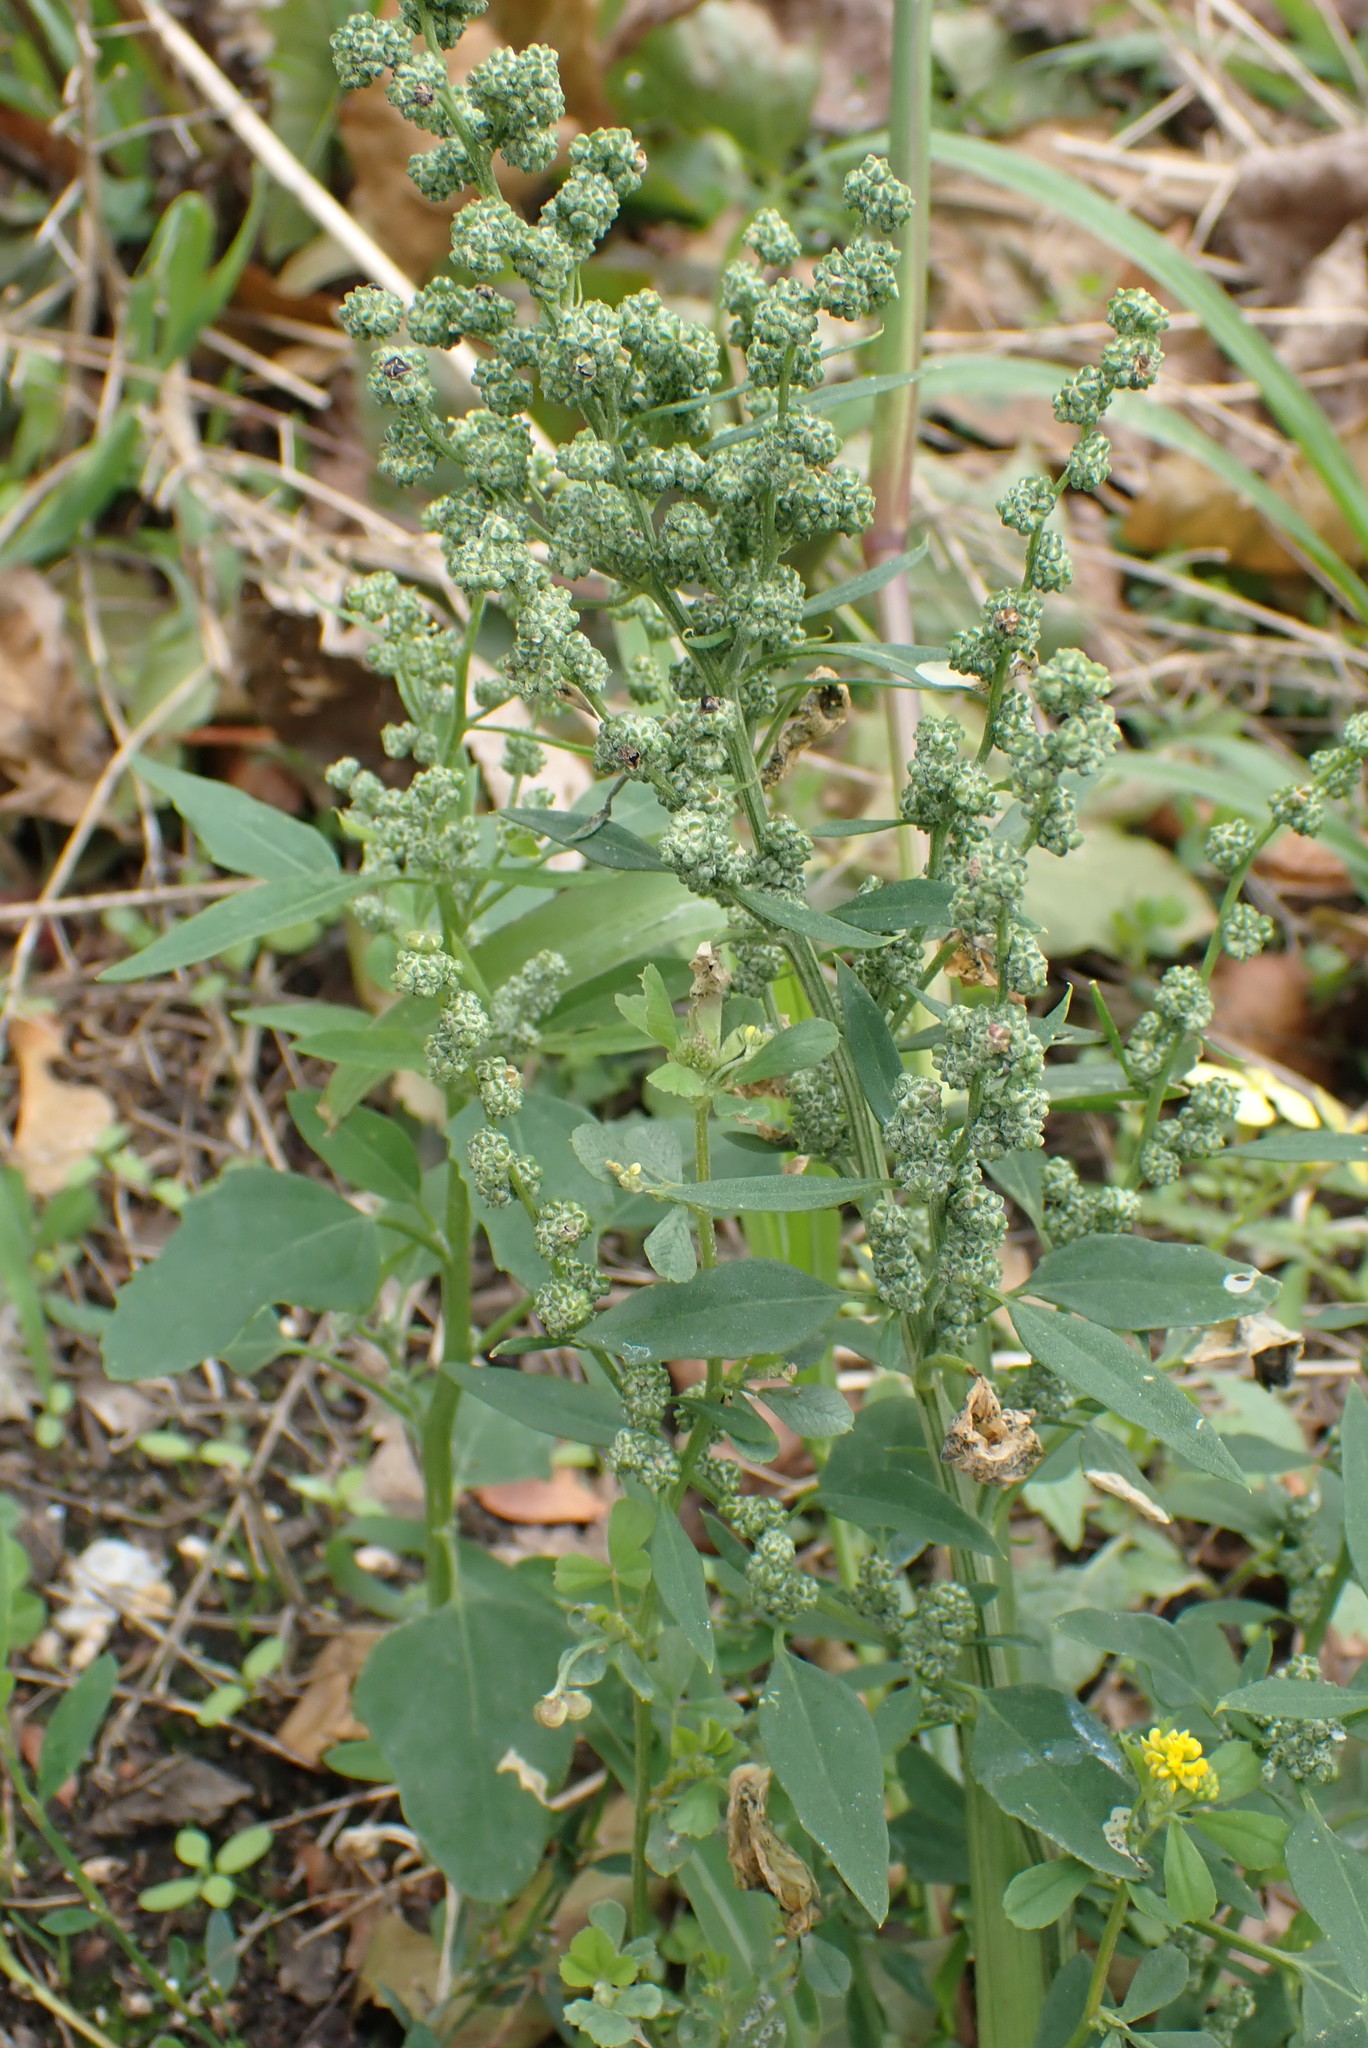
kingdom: Plantae
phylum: Tracheophyta
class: Magnoliopsida
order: Caryophyllales
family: Amaranthaceae
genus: Chenopodium
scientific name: Chenopodium album
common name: Fat-hen
